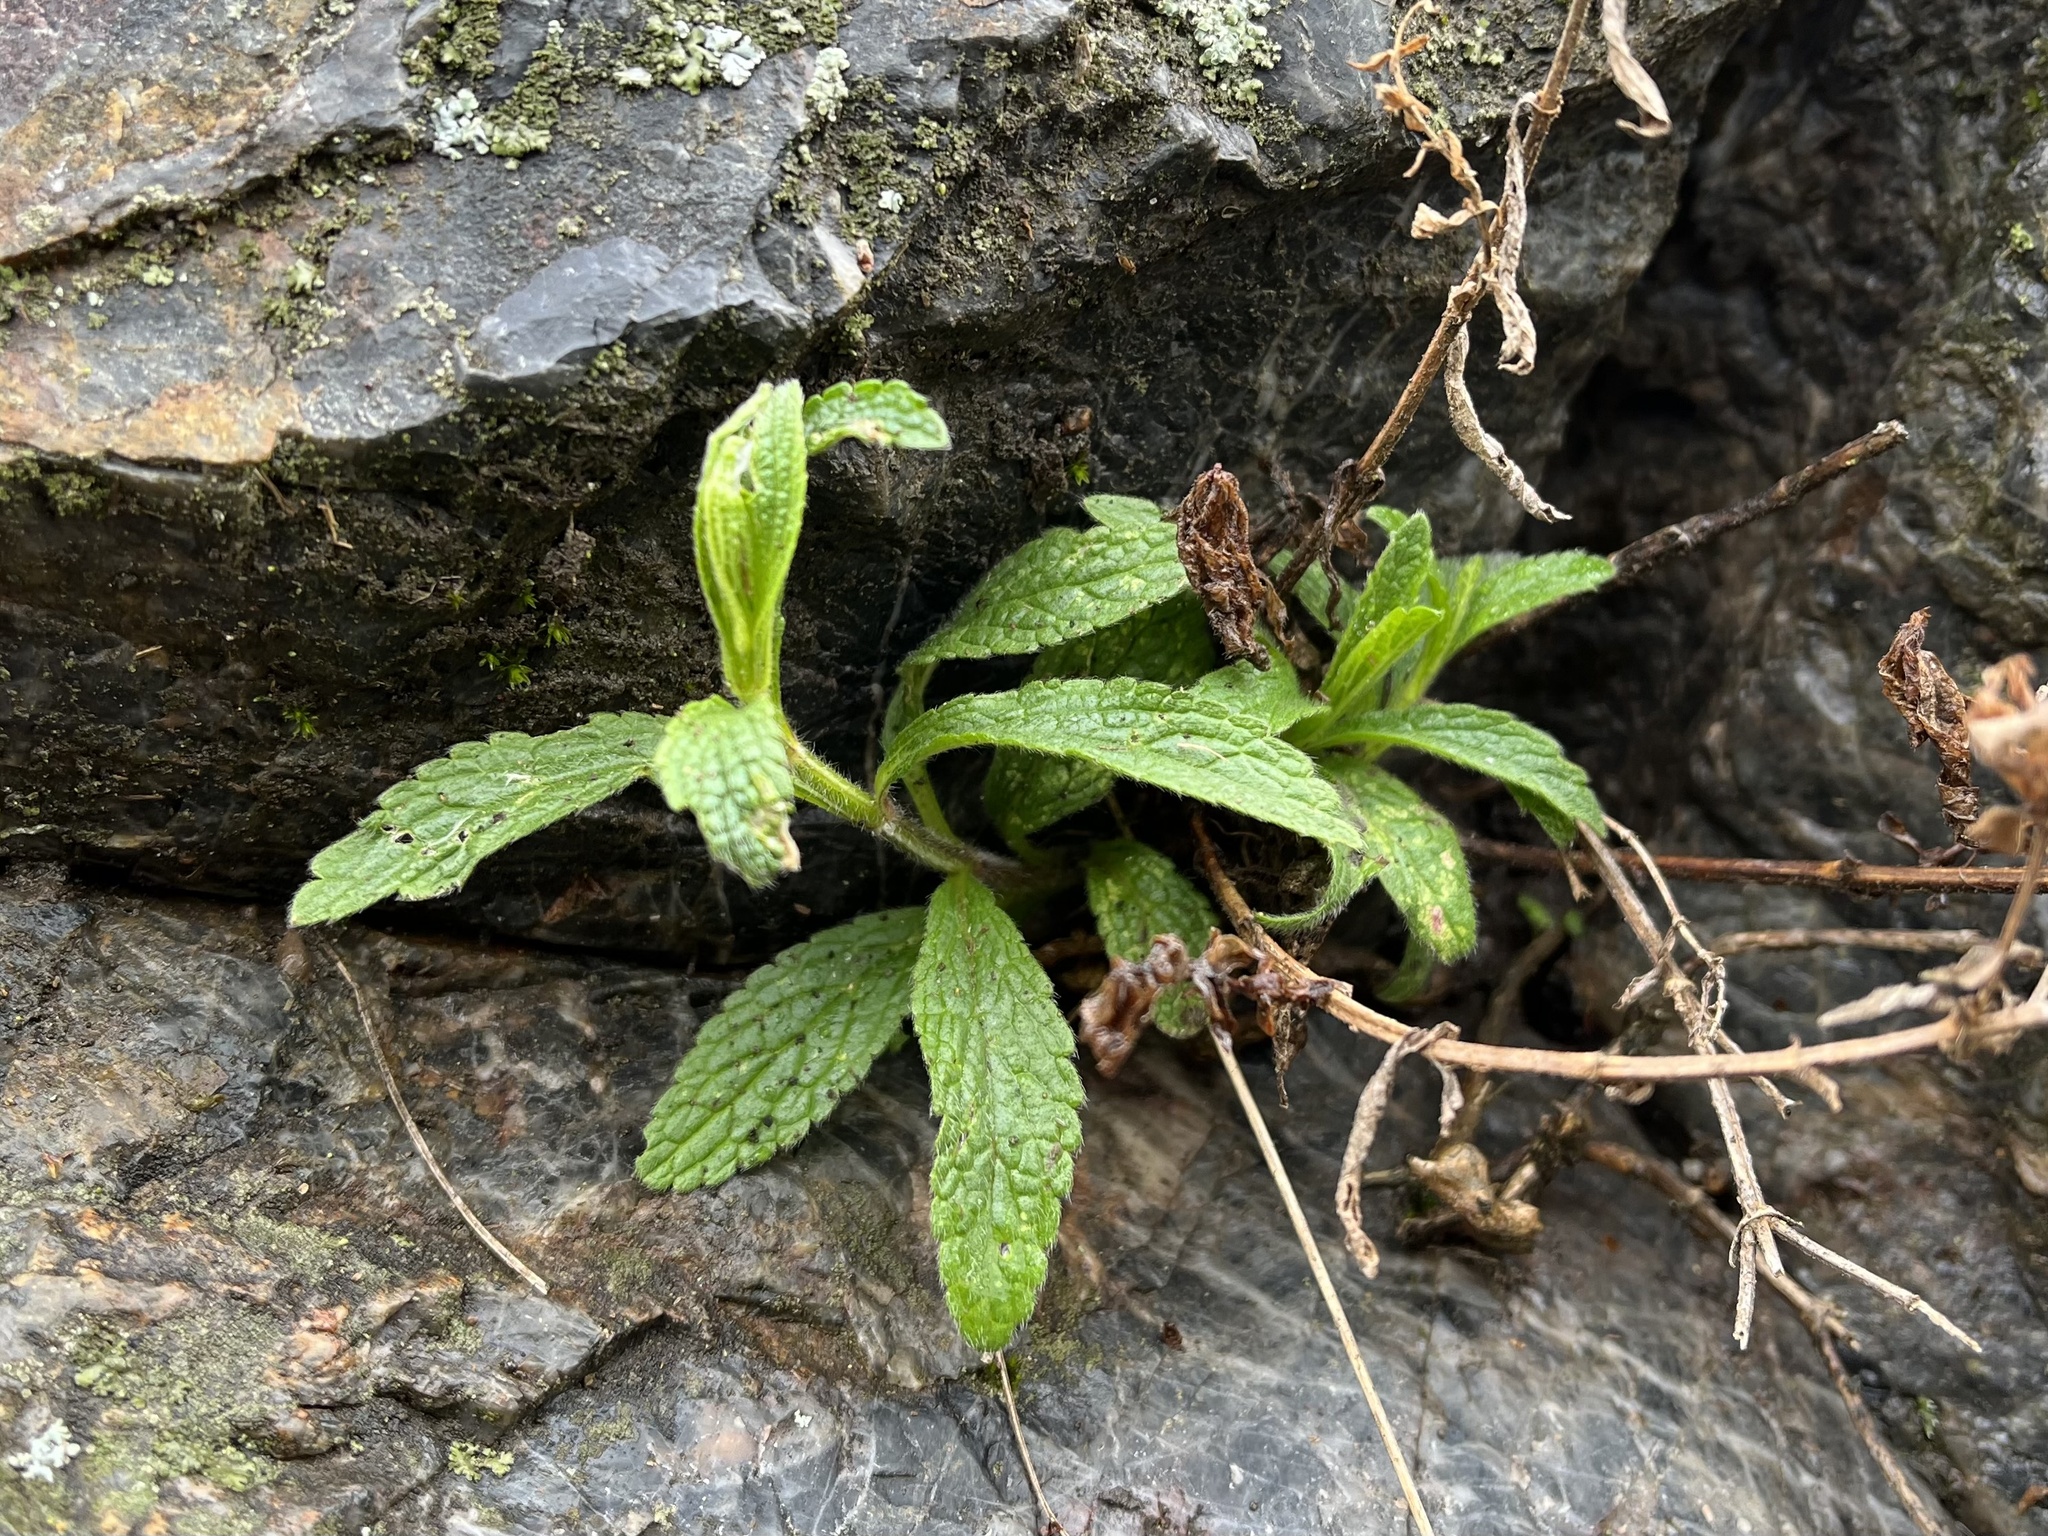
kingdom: Plantae
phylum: Tracheophyta
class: Magnoliopsida
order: Lamiales
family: Lamiaceae
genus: Stachys
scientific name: Stachys recta
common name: Perennial yellow-woundwort
